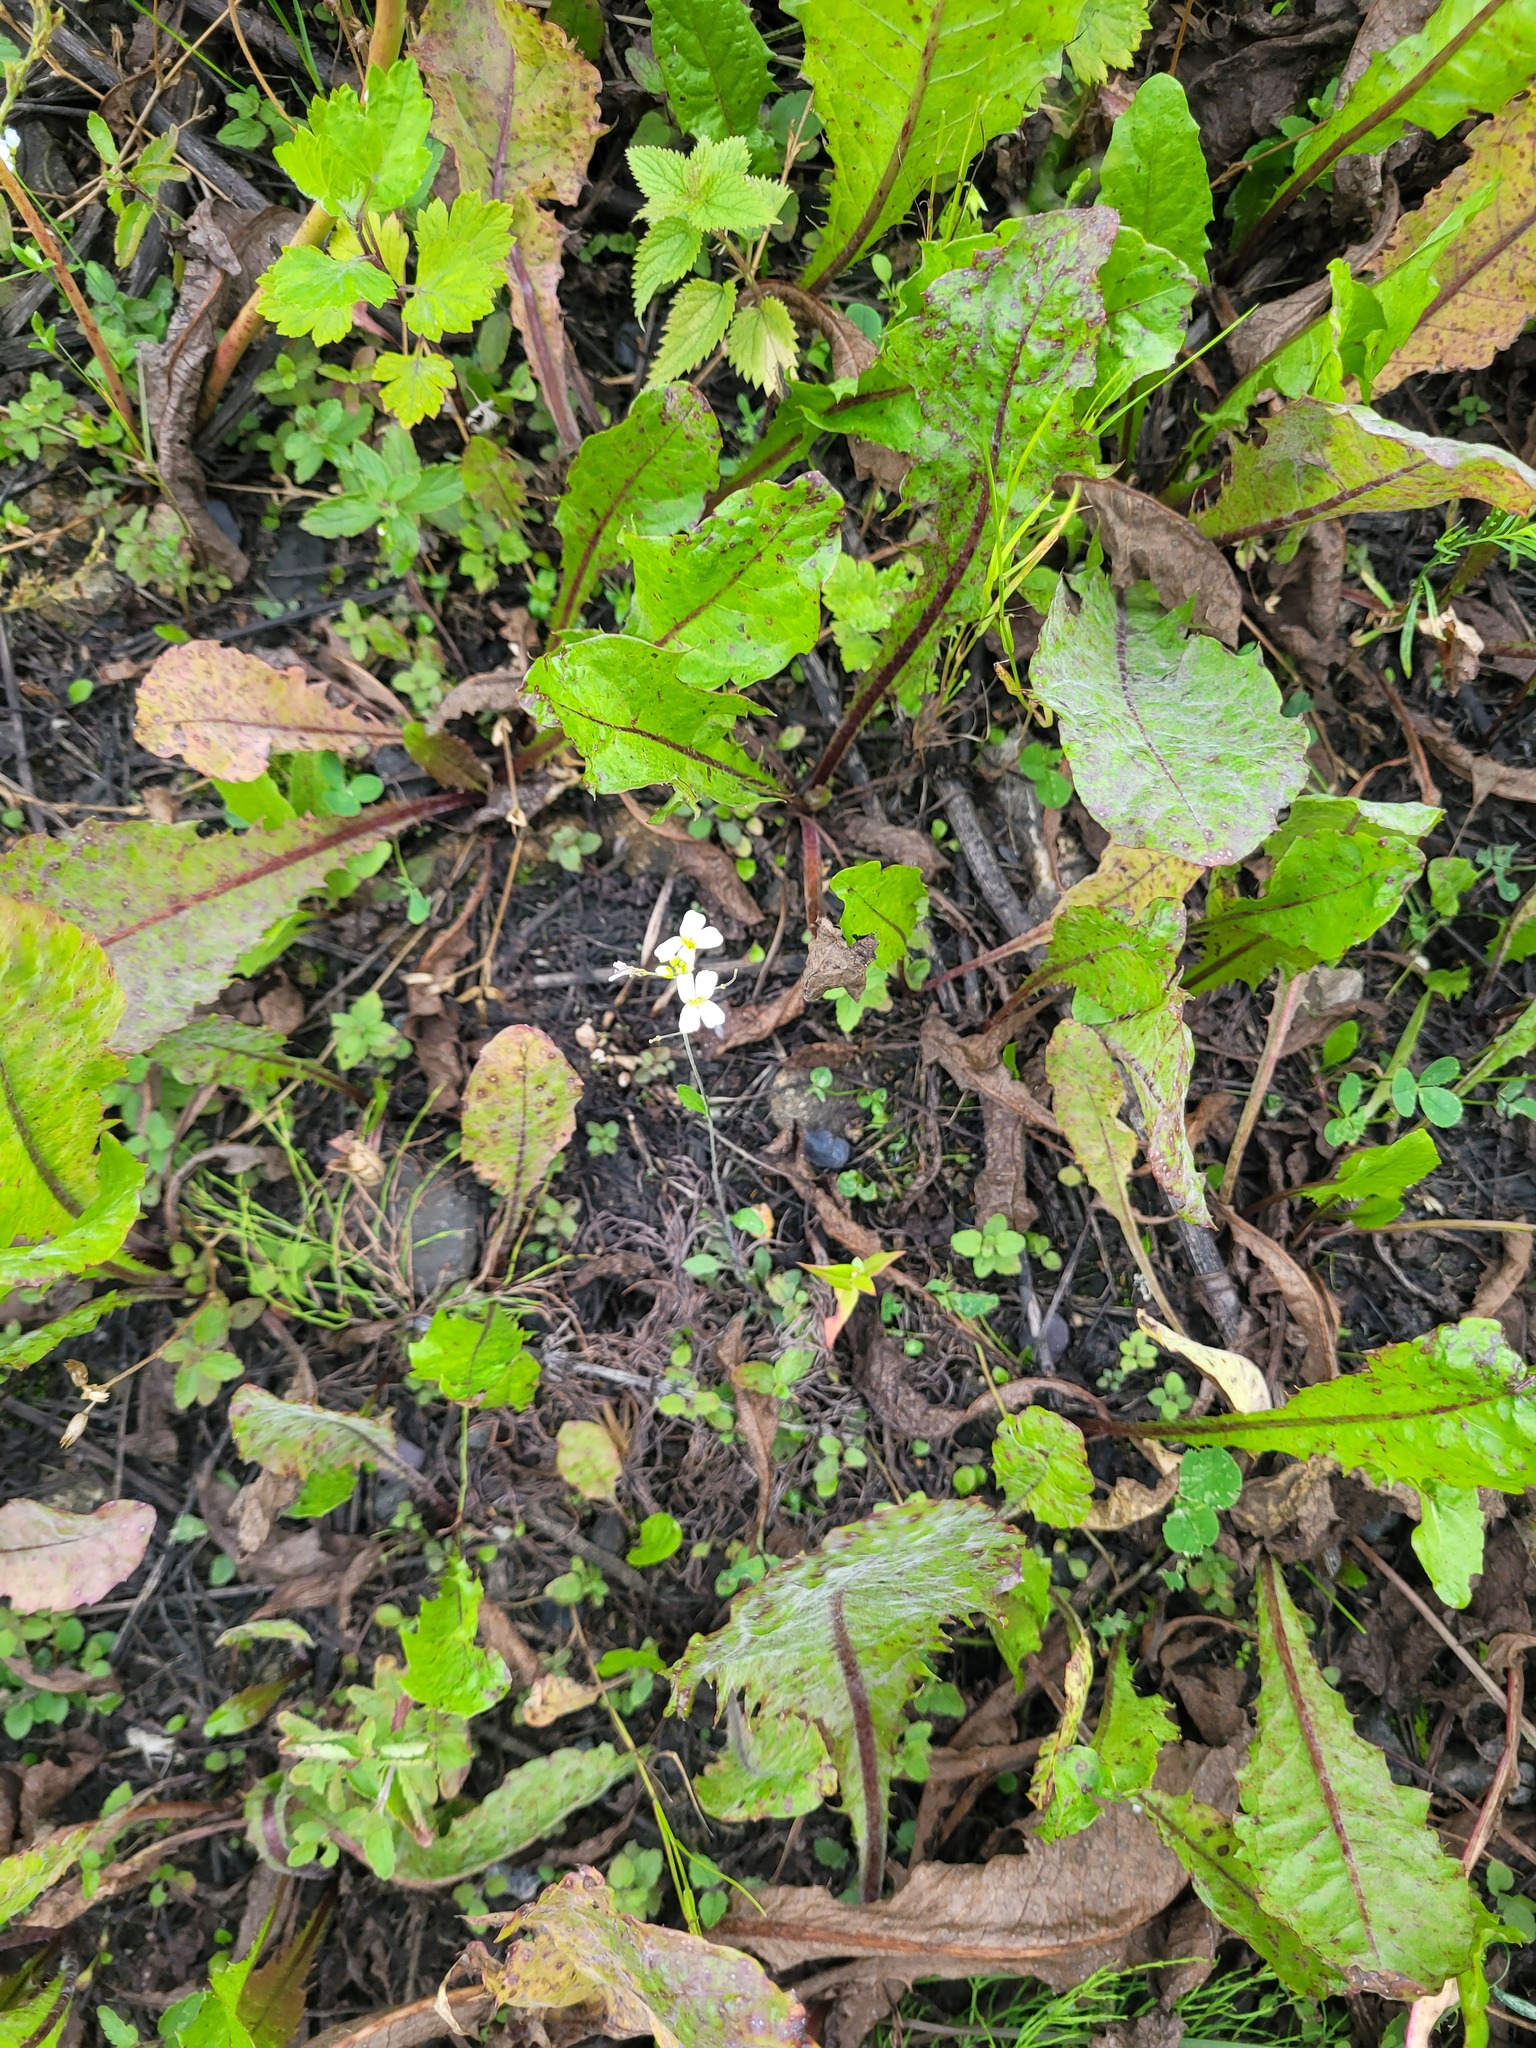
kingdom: Plantae
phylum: Tracheophyta
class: Magnoliopsida
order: Brassicales
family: Brassicaceae
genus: Arabidopsis
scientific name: Arabidopsis arenosa
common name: Sand rock-cress
